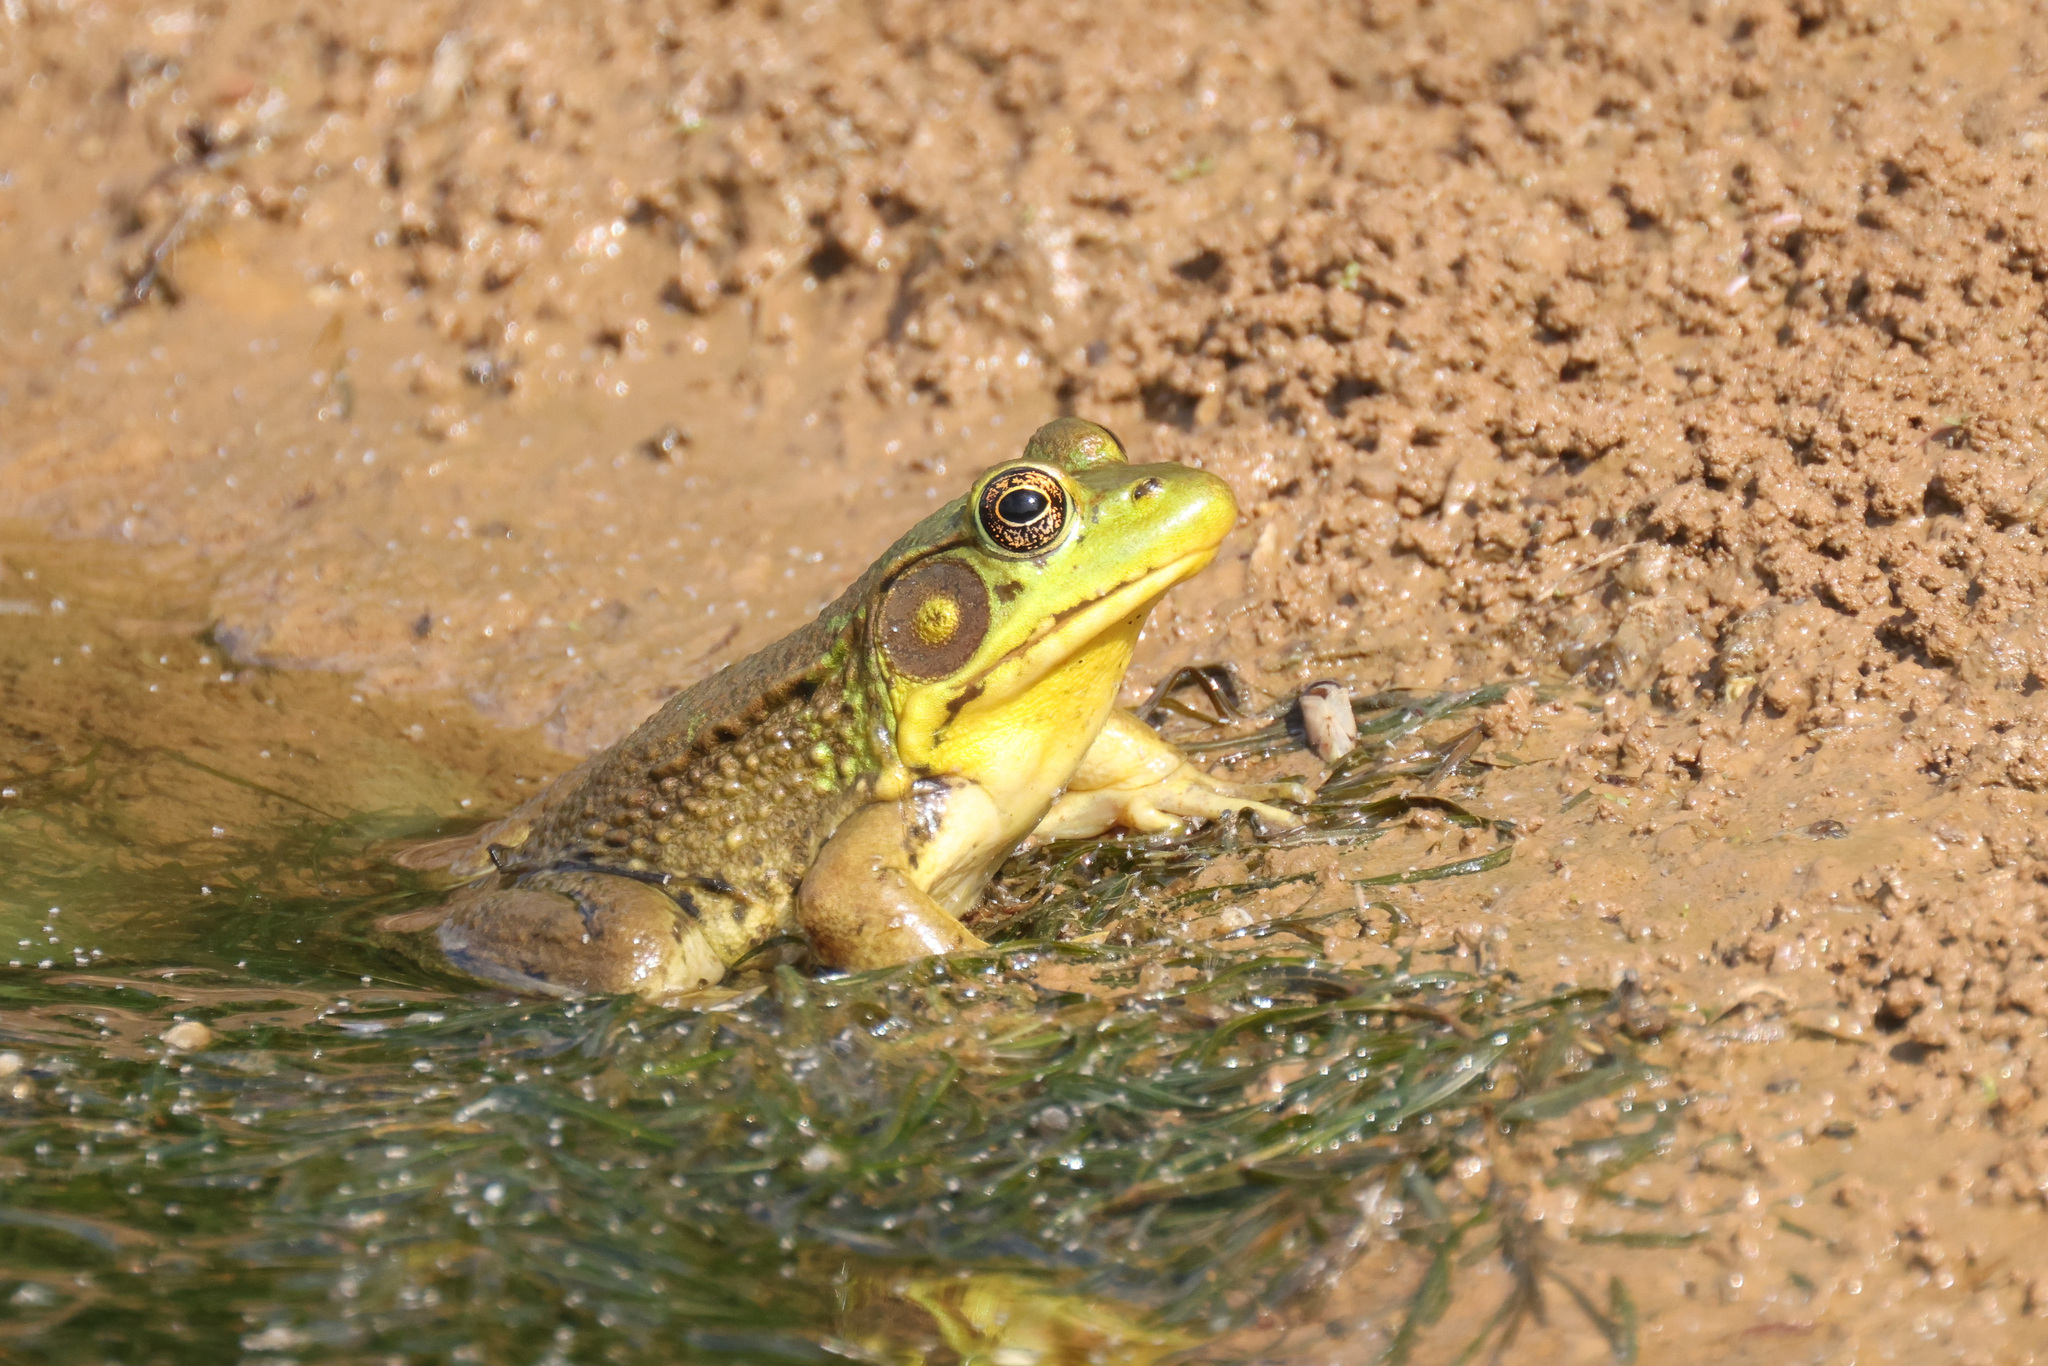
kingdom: Animalia
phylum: Chordata
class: Amphibia
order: Anura
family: Ranidae
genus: Lithobates
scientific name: Lithobates clamitans
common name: Green frog
